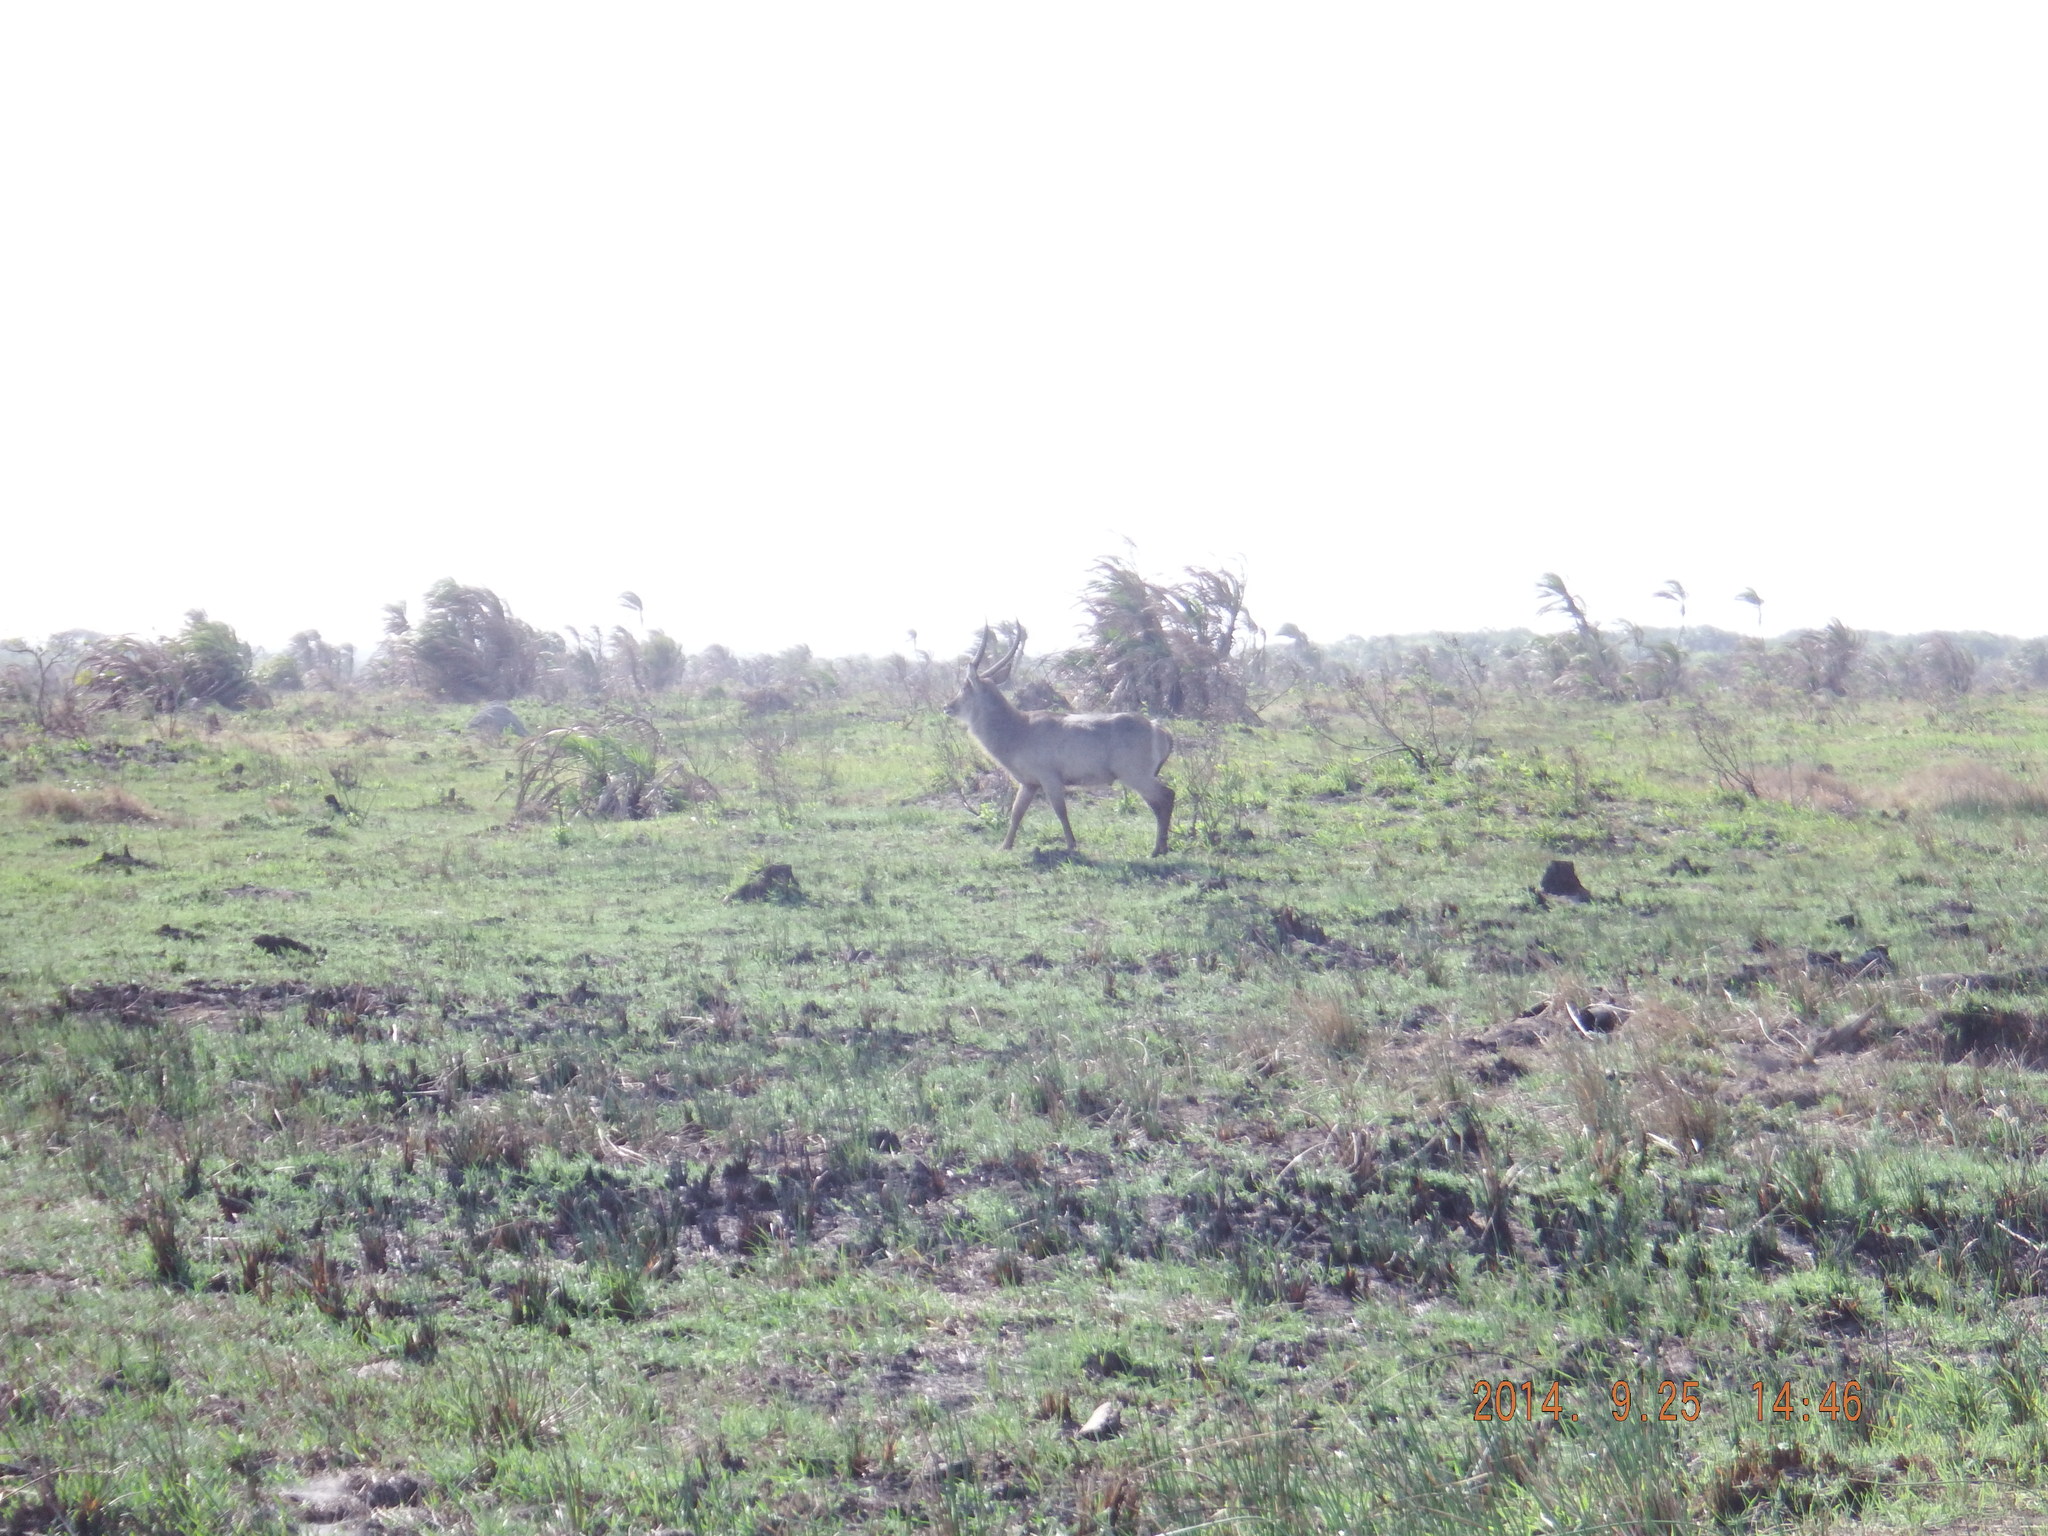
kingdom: Animalia
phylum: Chordata
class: Mammalia
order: Artiodactyla
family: Bovidae
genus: Kobus
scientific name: Kobus ellipsiprymnus
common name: Waterbuck
